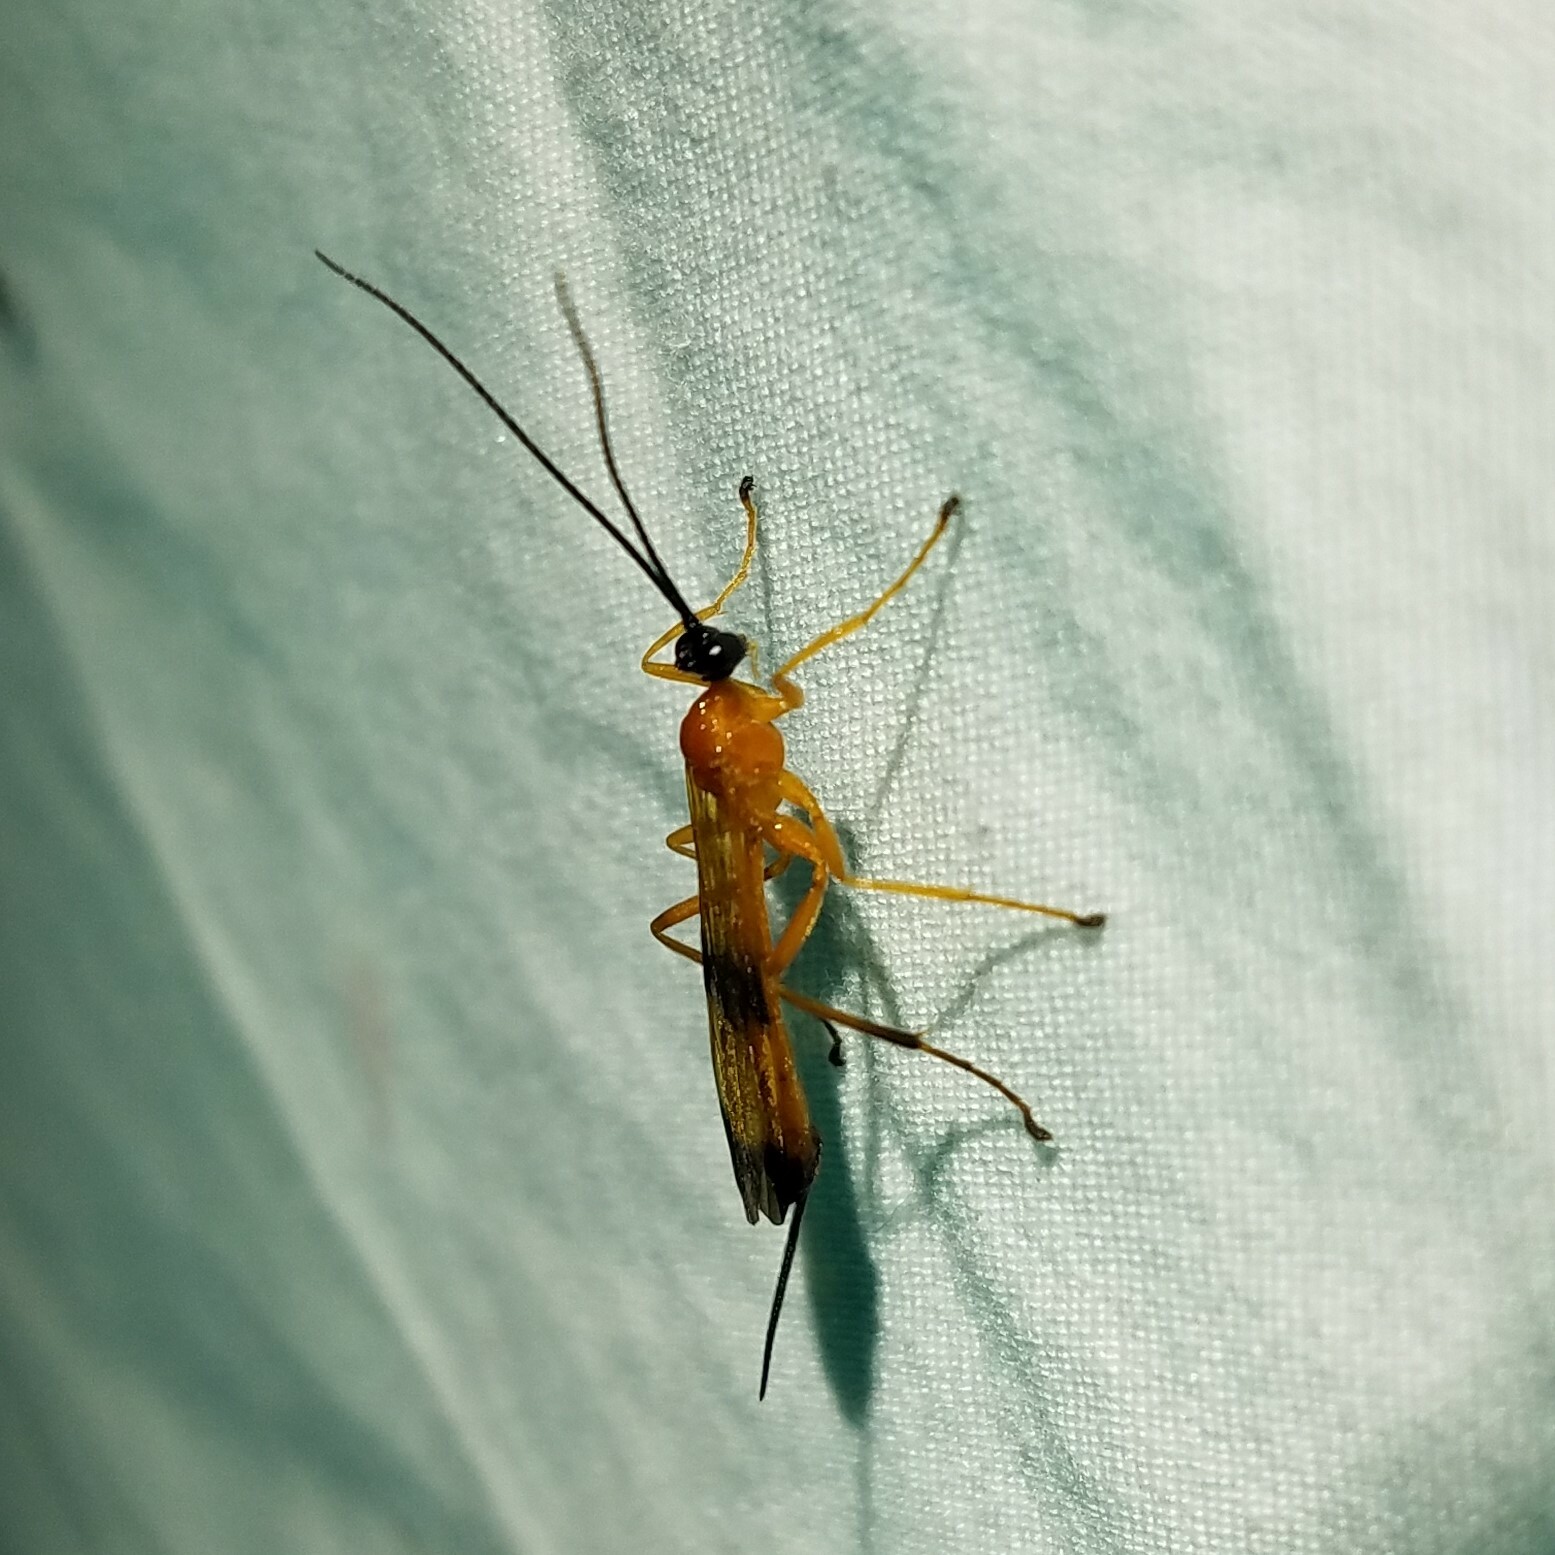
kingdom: Animalia
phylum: Arthropoda
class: Insecta
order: Hymenoptera
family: Ichneumonidae
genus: Acrotaphus
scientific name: Acrotaphus wiltii
